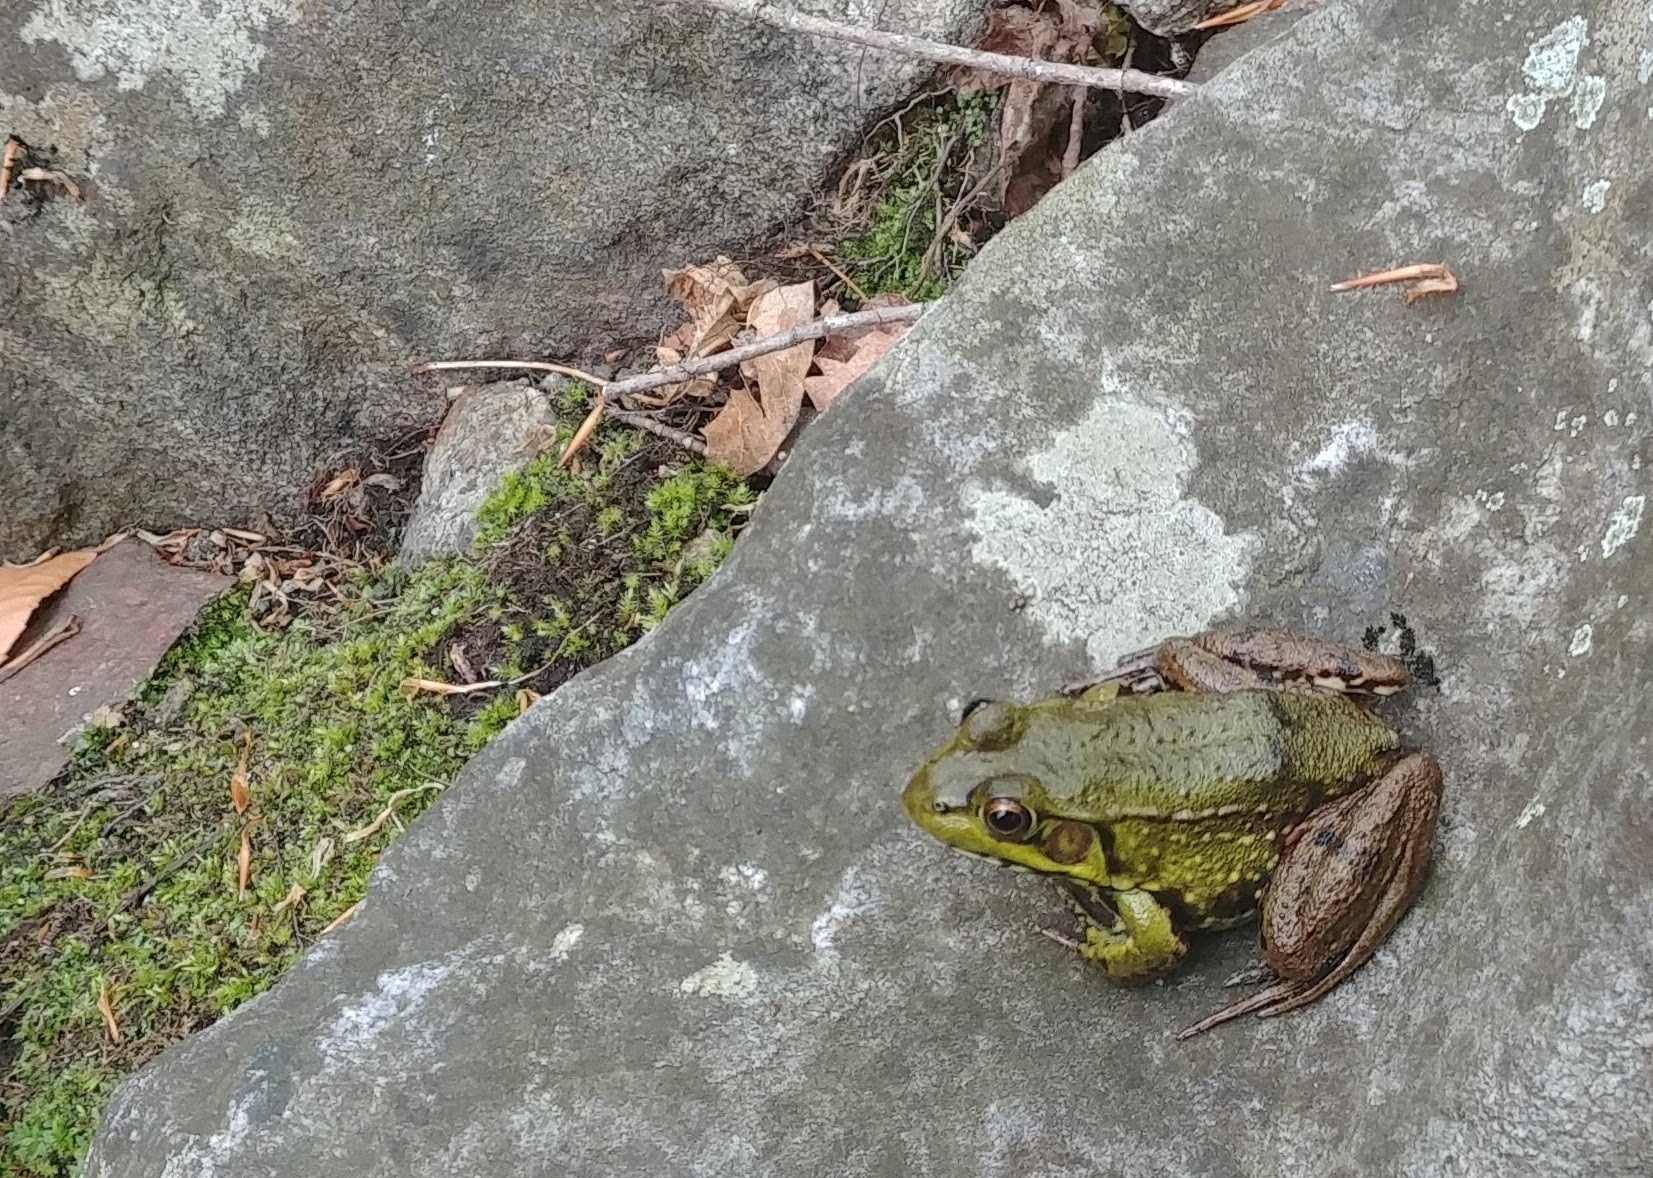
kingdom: Animalia
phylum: Chordata
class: Amphibia
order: Anura
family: Ranidae
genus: Lithobates
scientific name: Lithobates clamitans
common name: Green frog
